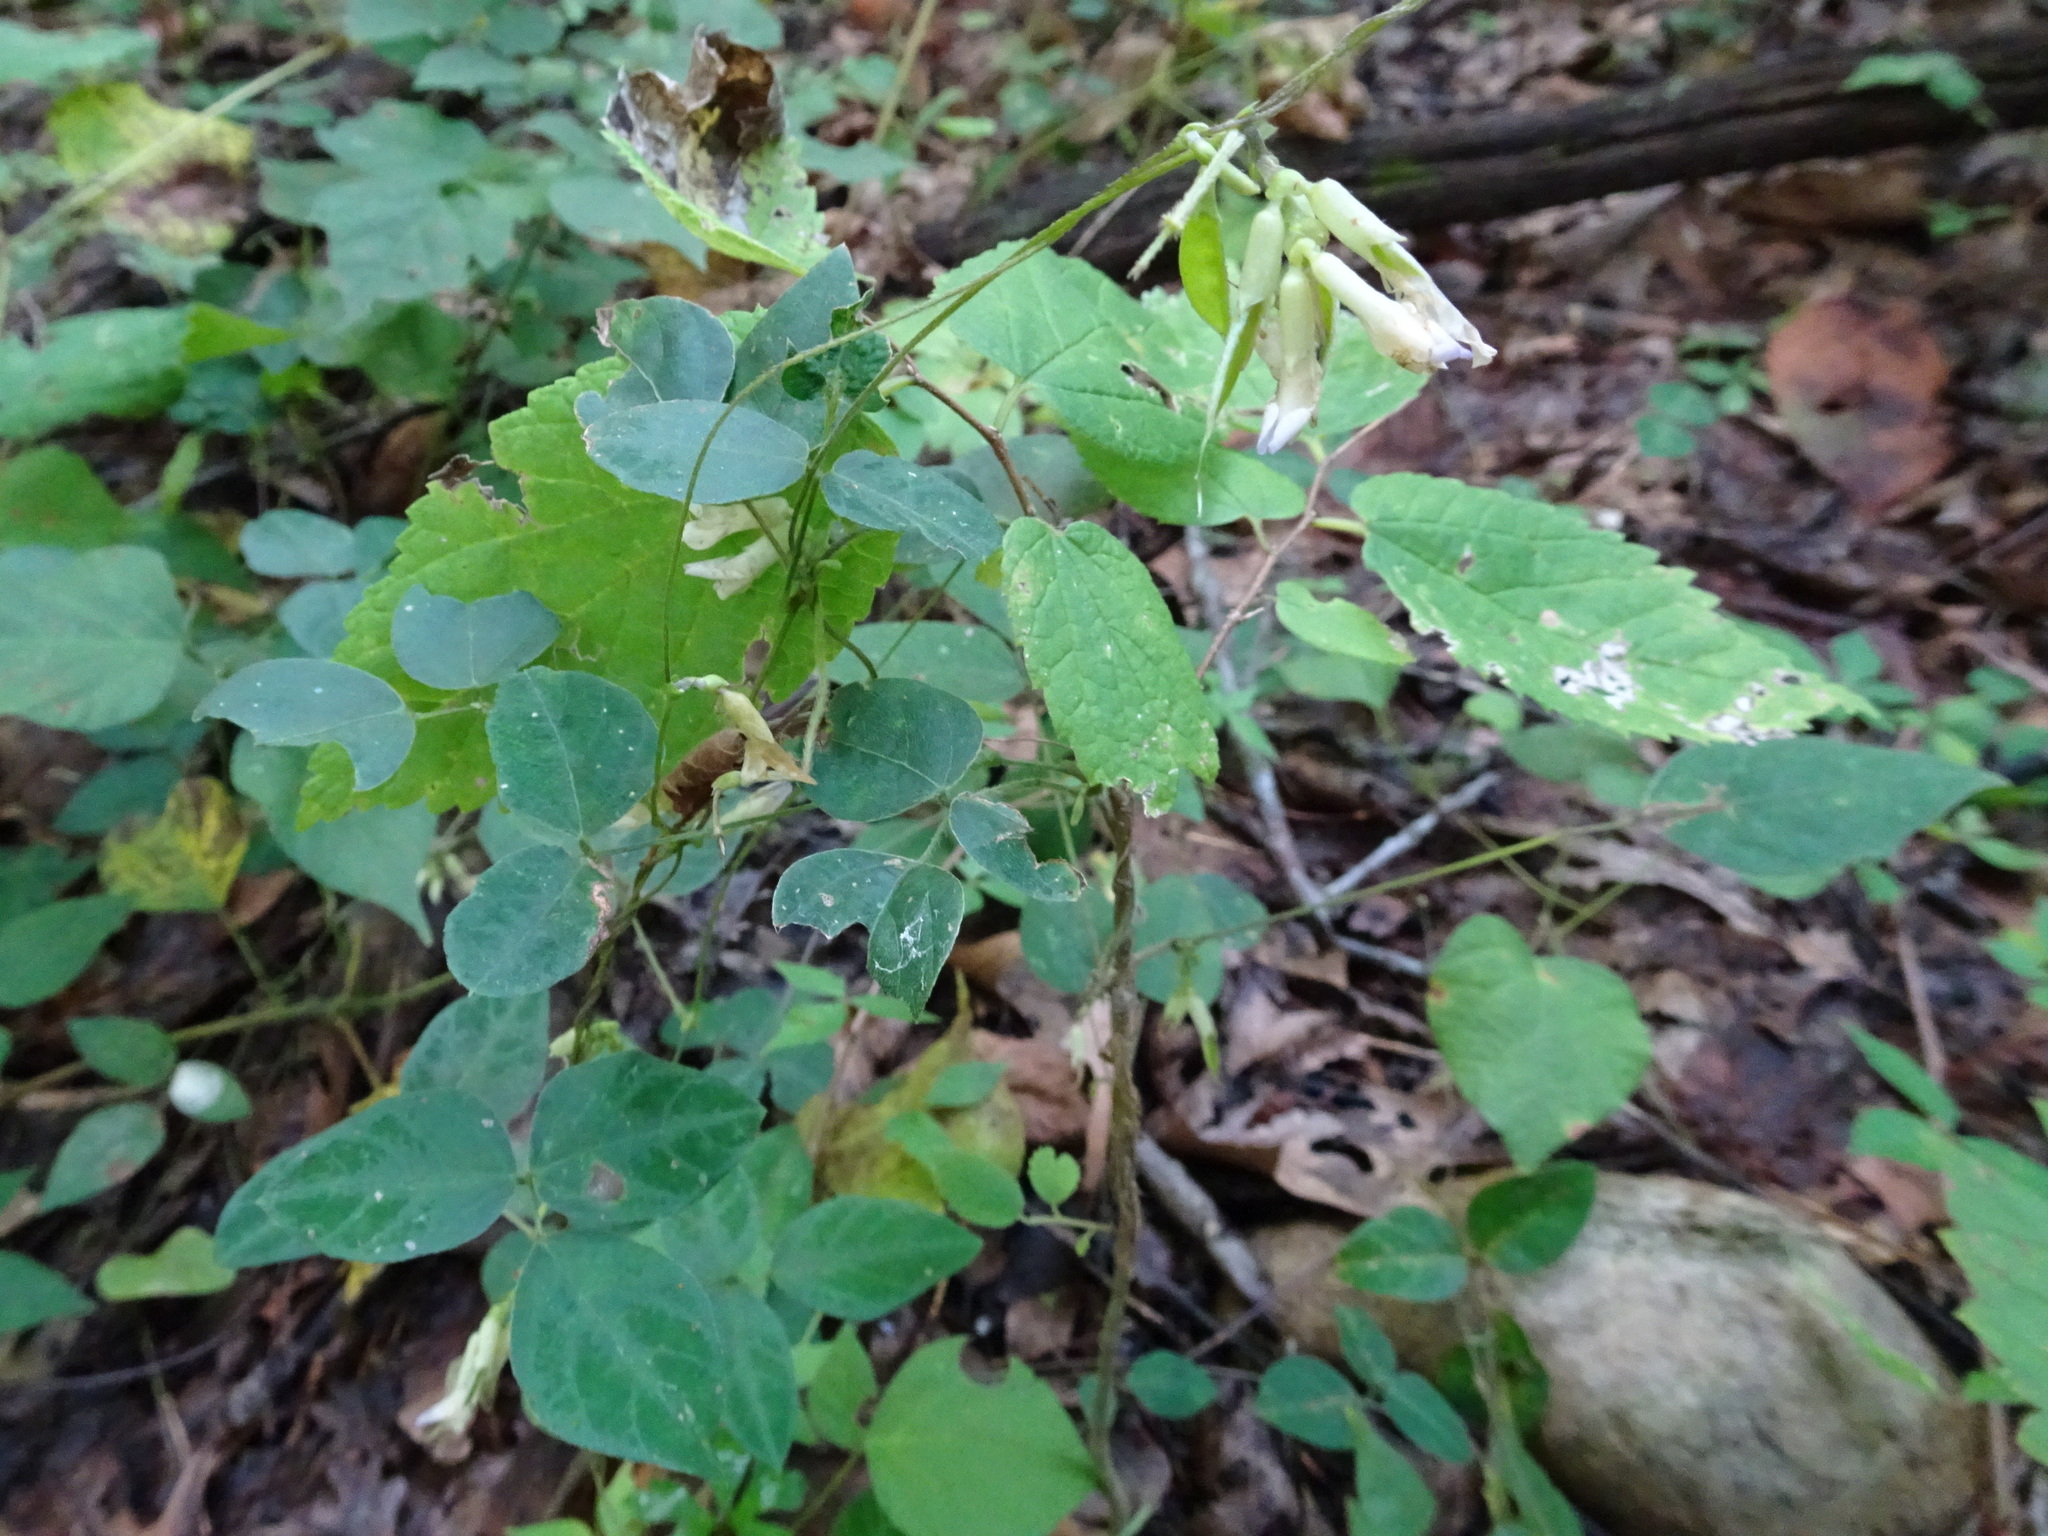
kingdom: Plantae
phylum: Tracheophyta
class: Magnoliopsida
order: Fabales
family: Fabaceae
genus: Amphicarpaea
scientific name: Amphicarpaea bracteata
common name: American hog peanut
